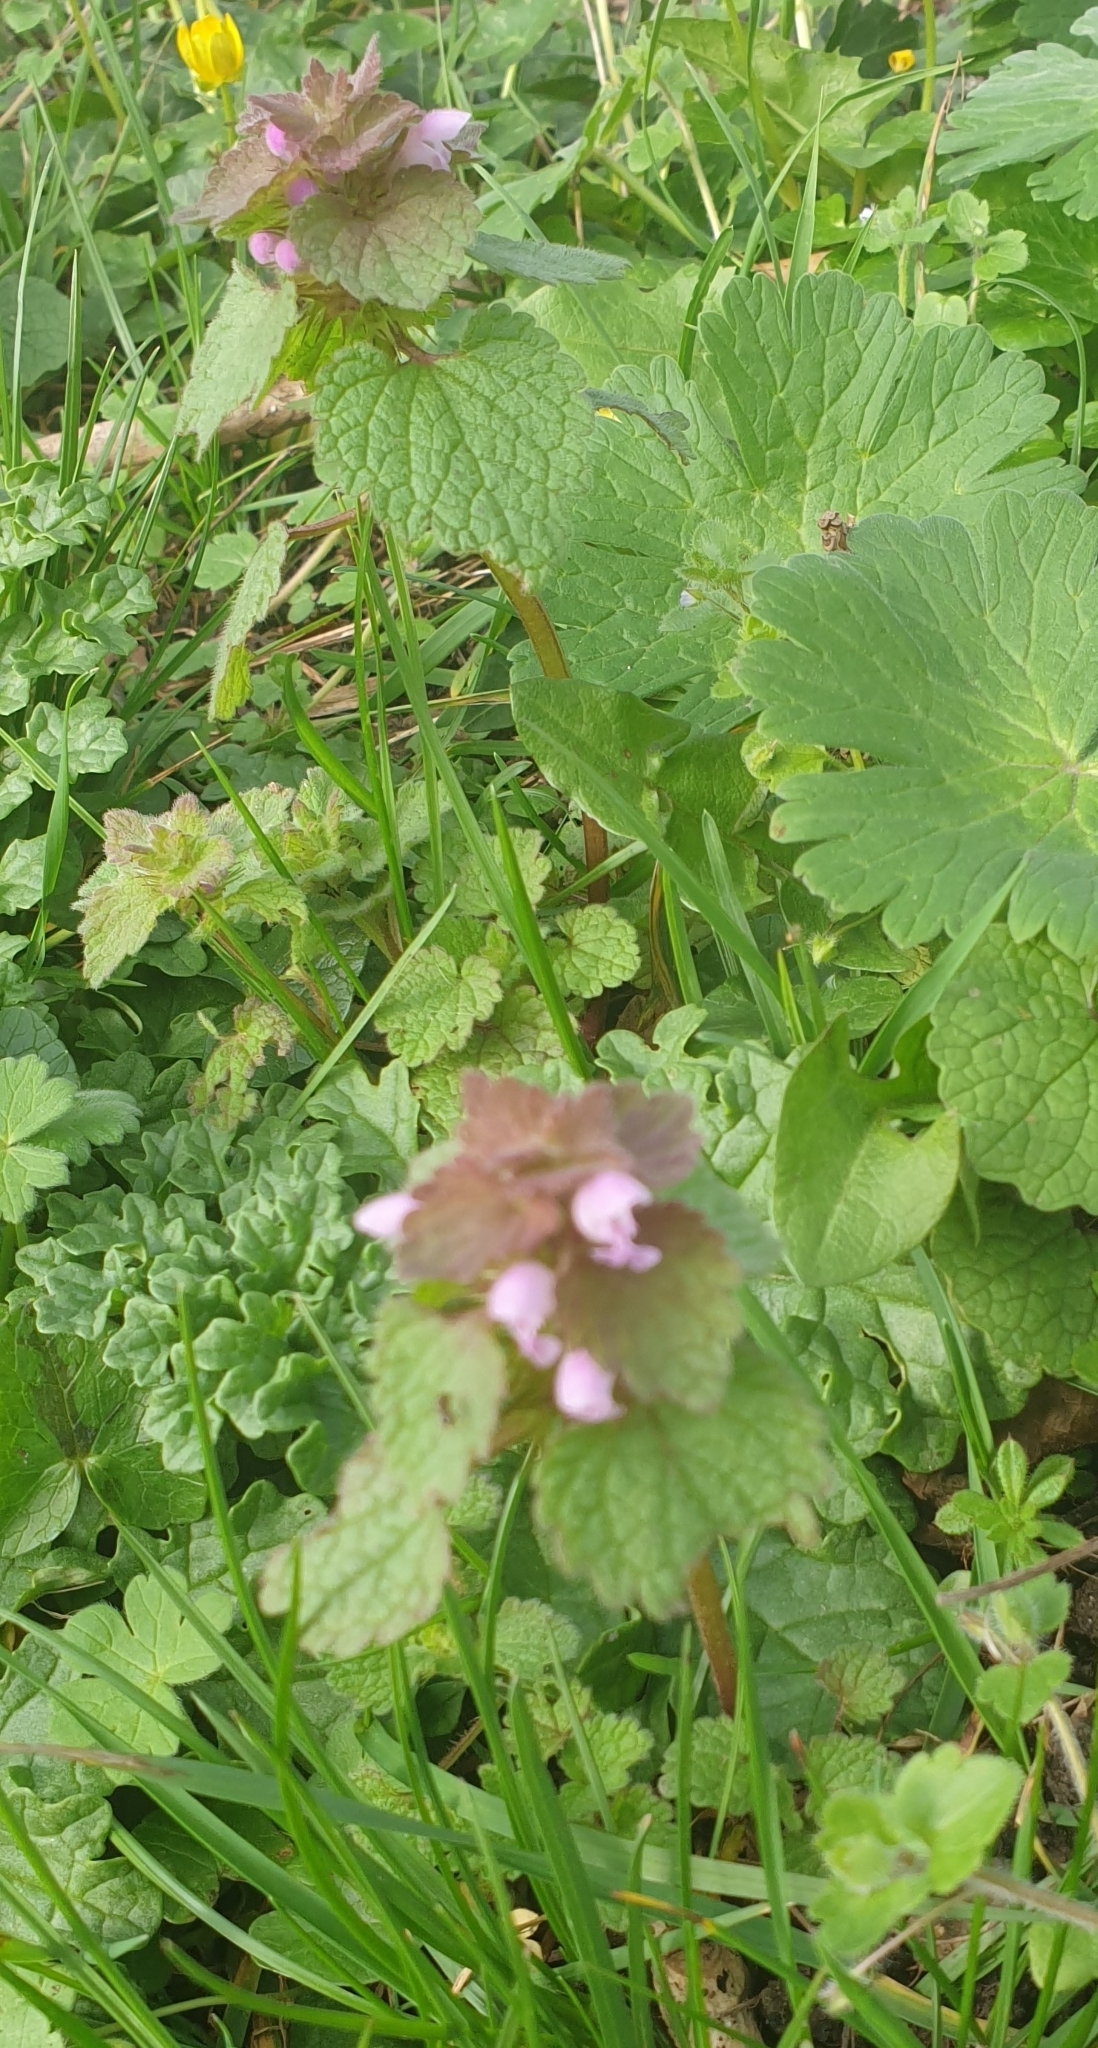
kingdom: Plantae
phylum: Tracheophyta
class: Magnoliopsida
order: Lamiales
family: Lamiaceae
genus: Lamium
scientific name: Lamium purpureum
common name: Red dead-nettle
